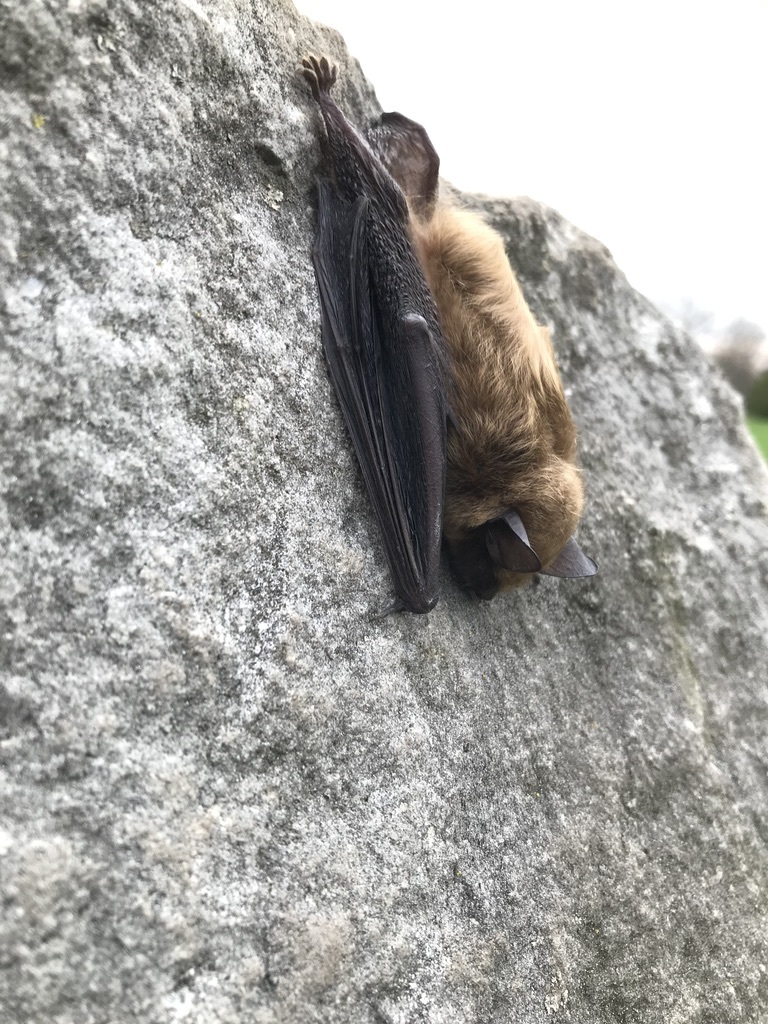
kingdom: Animalia
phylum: Chordata
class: Mammalia
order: Chiroptera
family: Vespertilionidae
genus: Eptesicus
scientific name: Eptesicus fuscus
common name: Big brown bat
